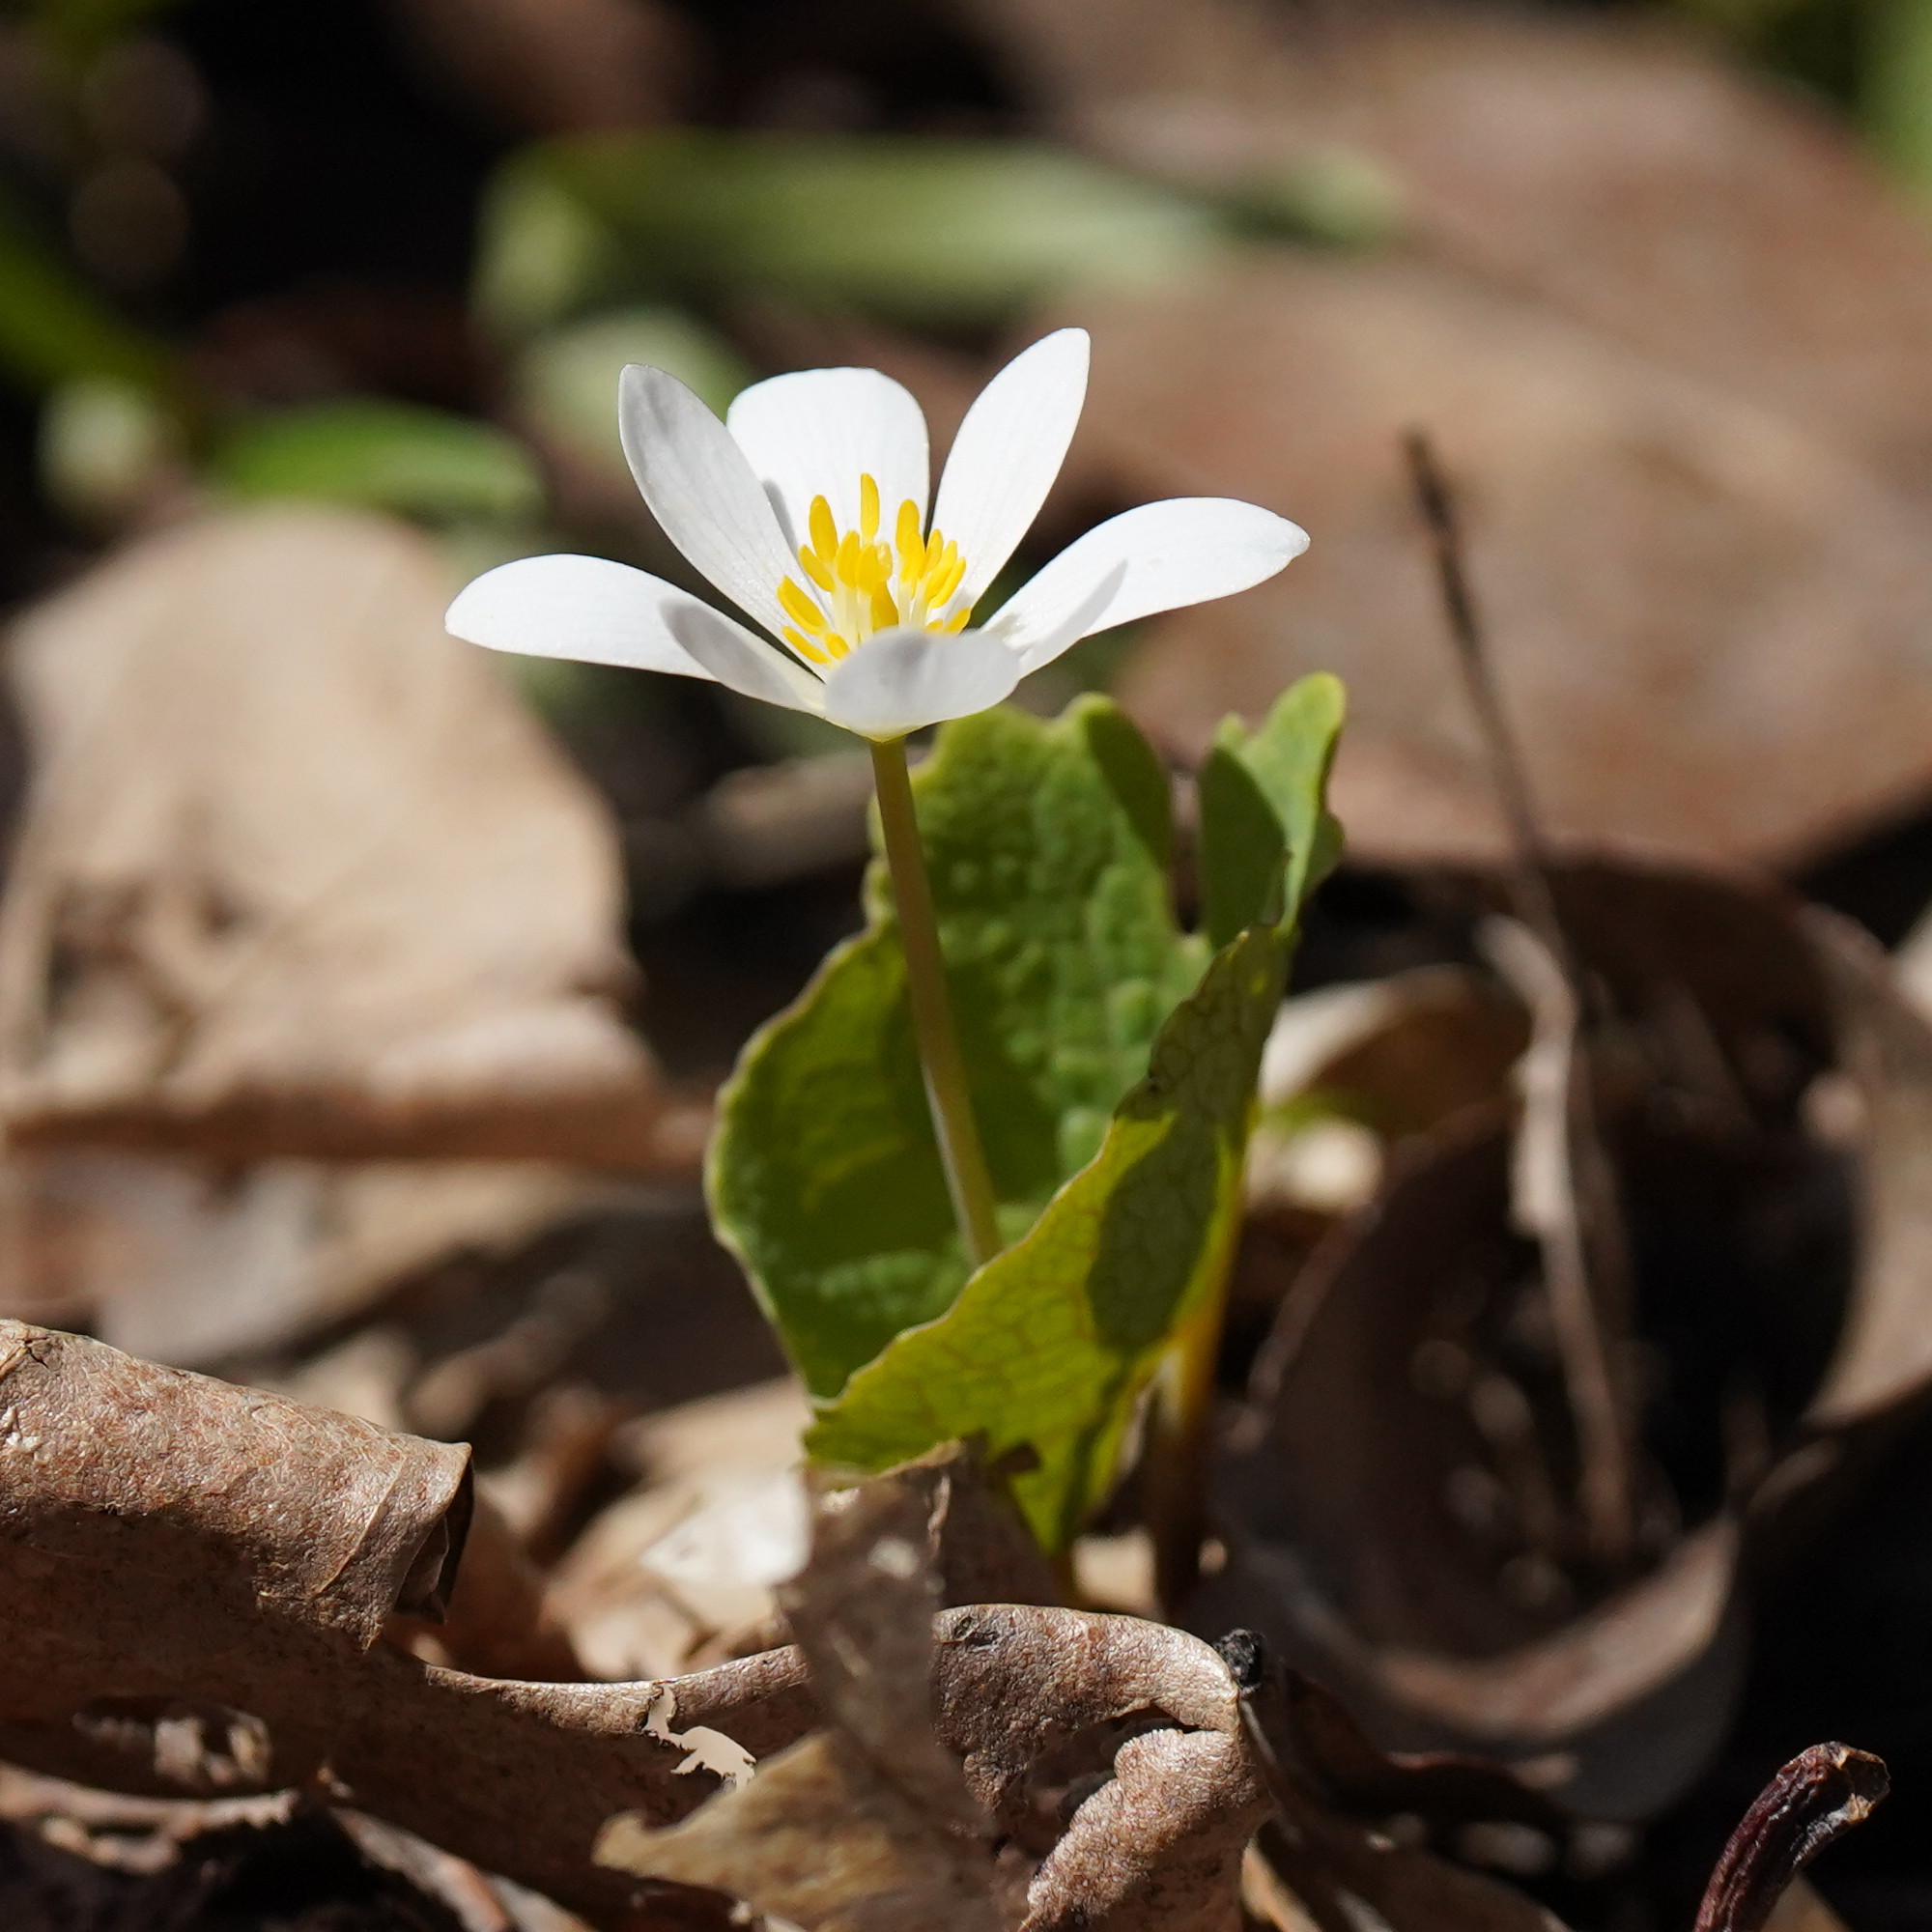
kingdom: Plantae
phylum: Tracheophyta
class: Magnoliopsida
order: Ranunculales
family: Papaveraceae
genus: Sanguinaria
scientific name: Sanguinaria canadensis
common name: Bloodroot
